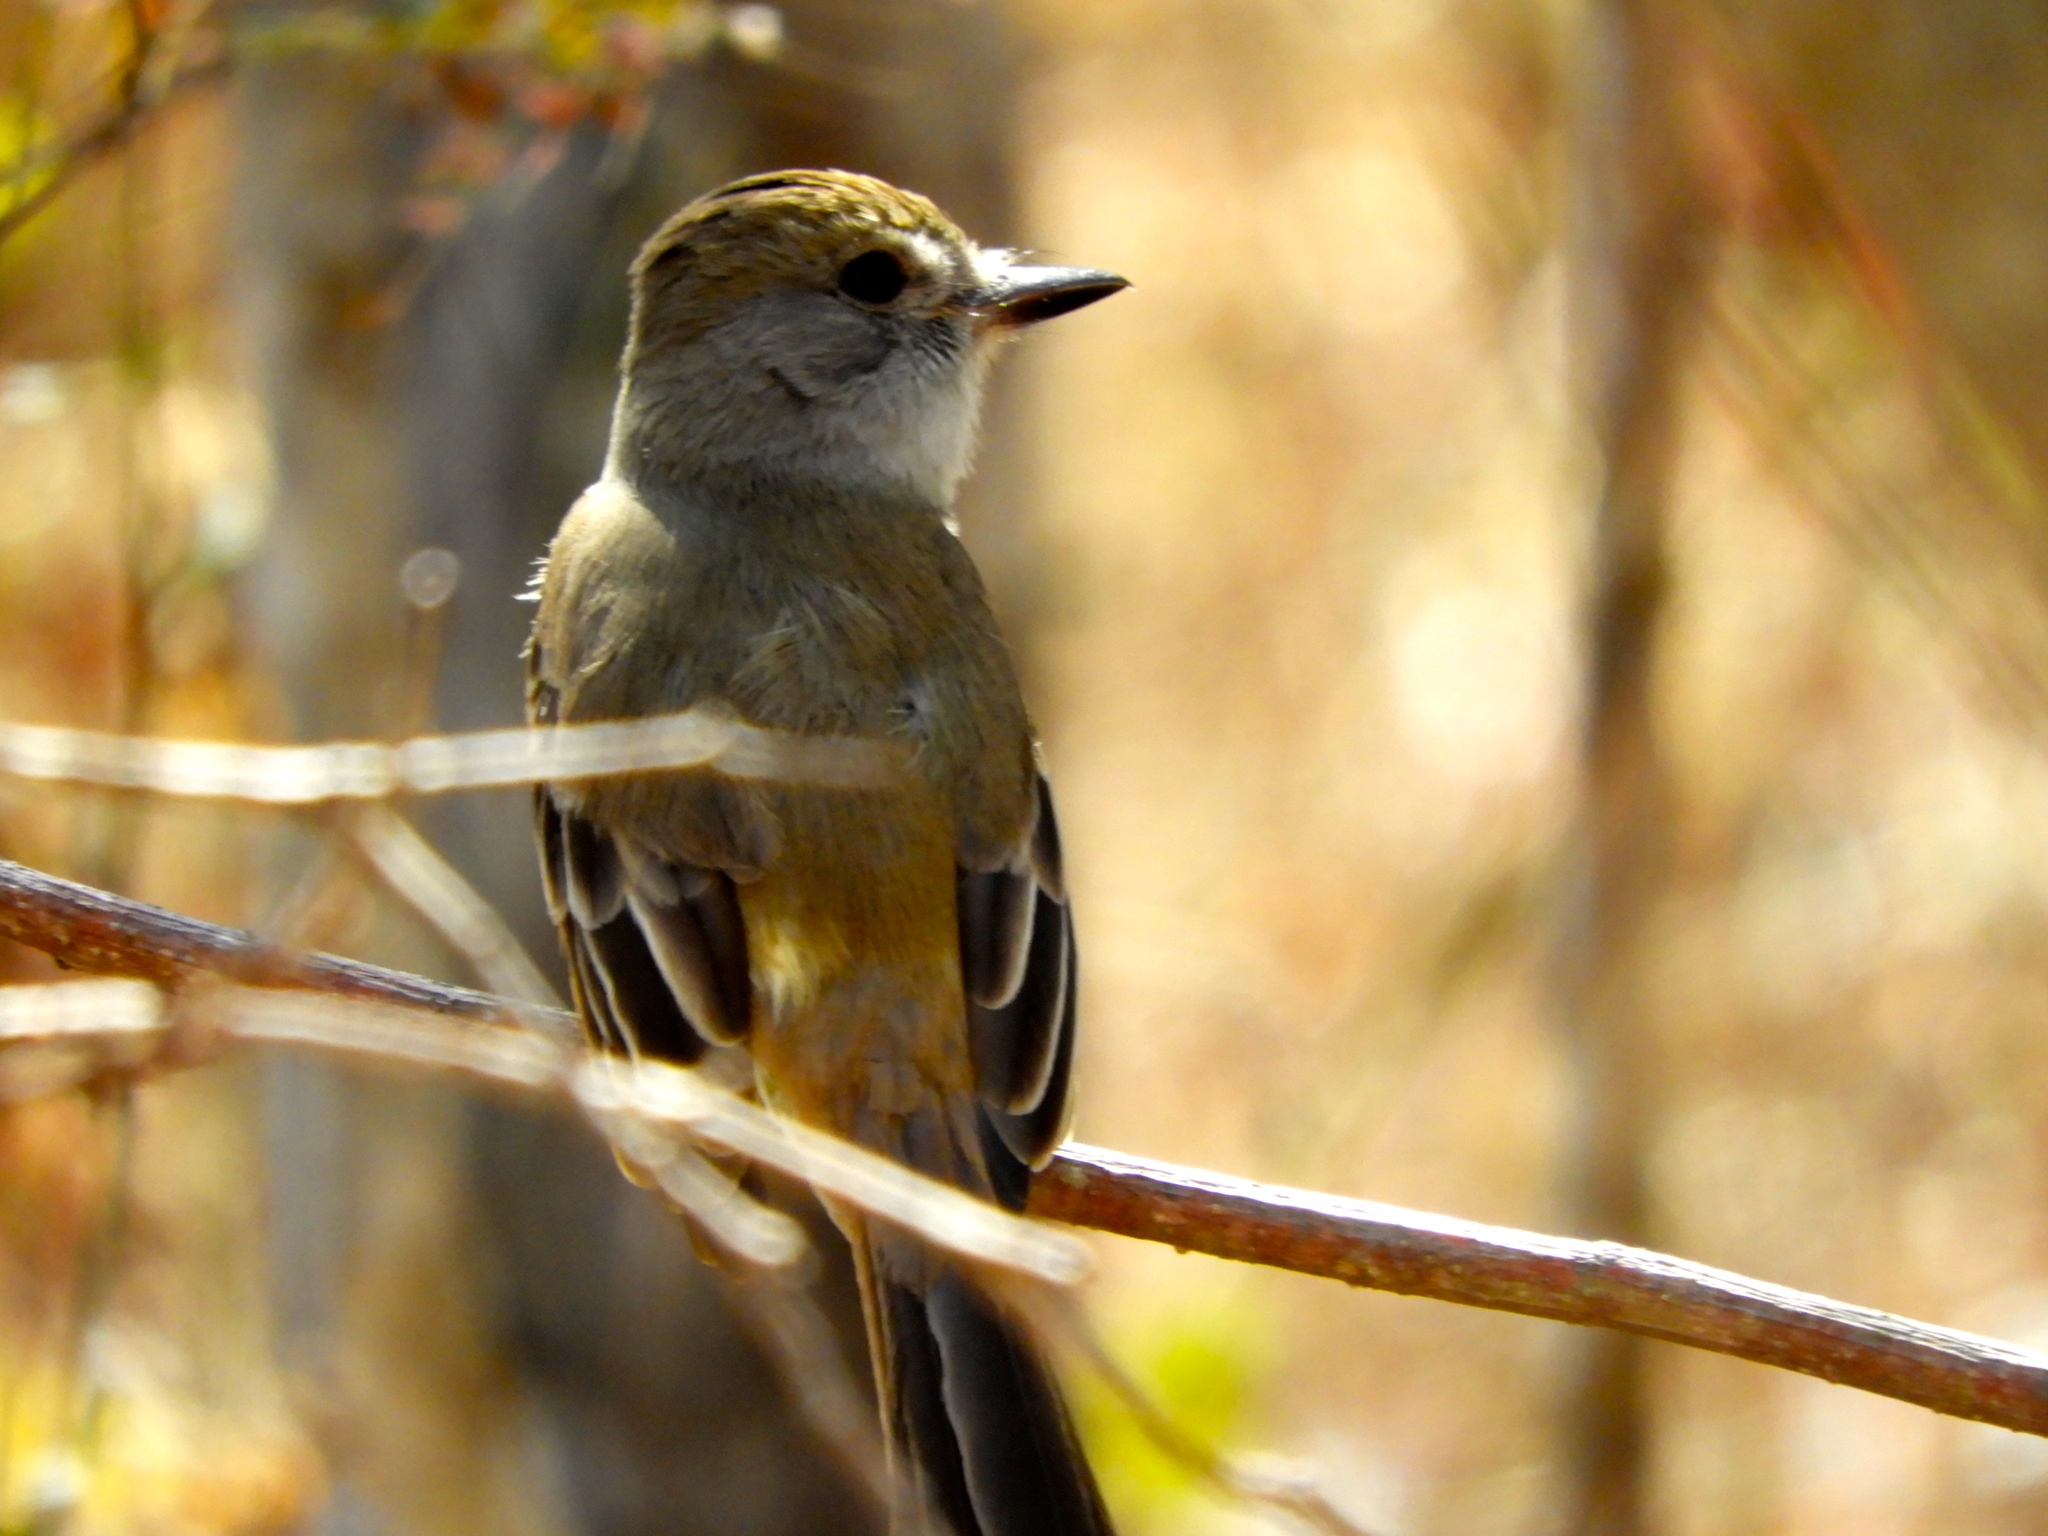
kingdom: Animalia
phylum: Chordata
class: Aves
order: Passeriformes
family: Tyrannidae
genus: Myiarchus
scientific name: Myiarchus
